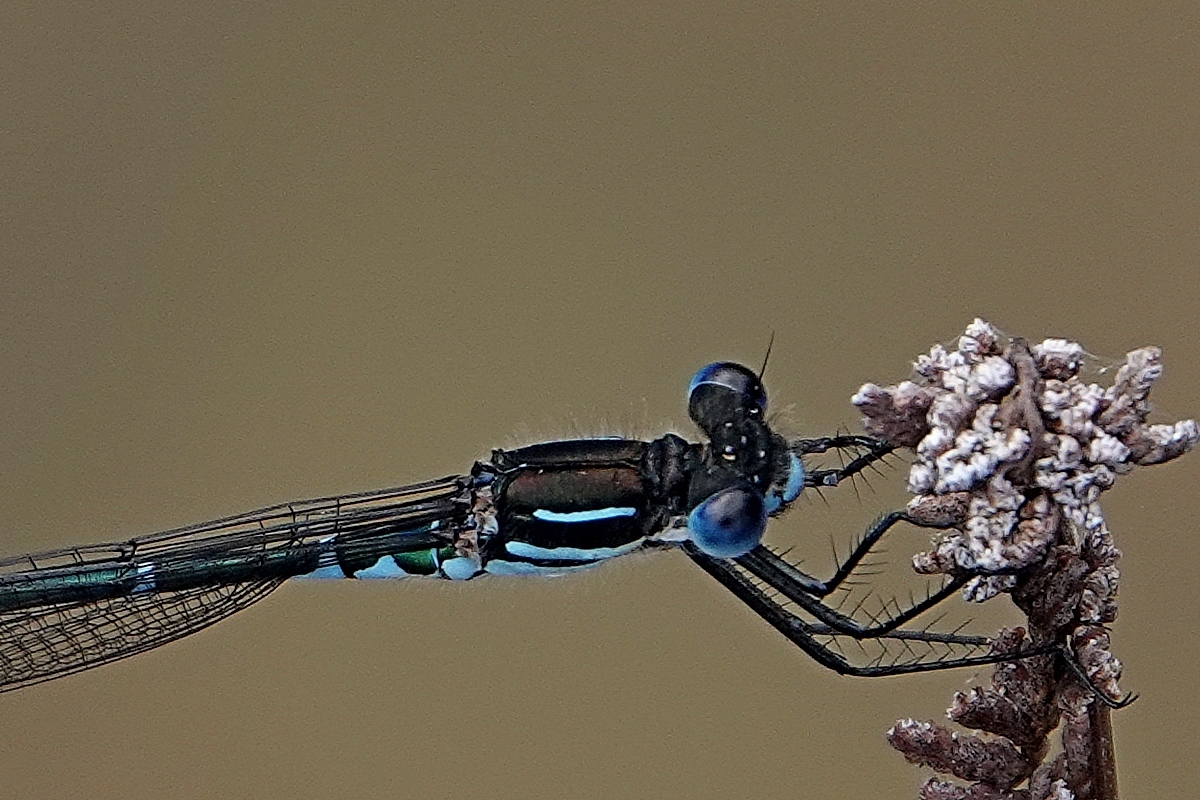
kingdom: Animalia
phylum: Arthropoda
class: Insecta
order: Odonata
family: Lestidae
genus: Austrolestes
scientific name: Austrolestes psyche
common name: Cup ringtail
